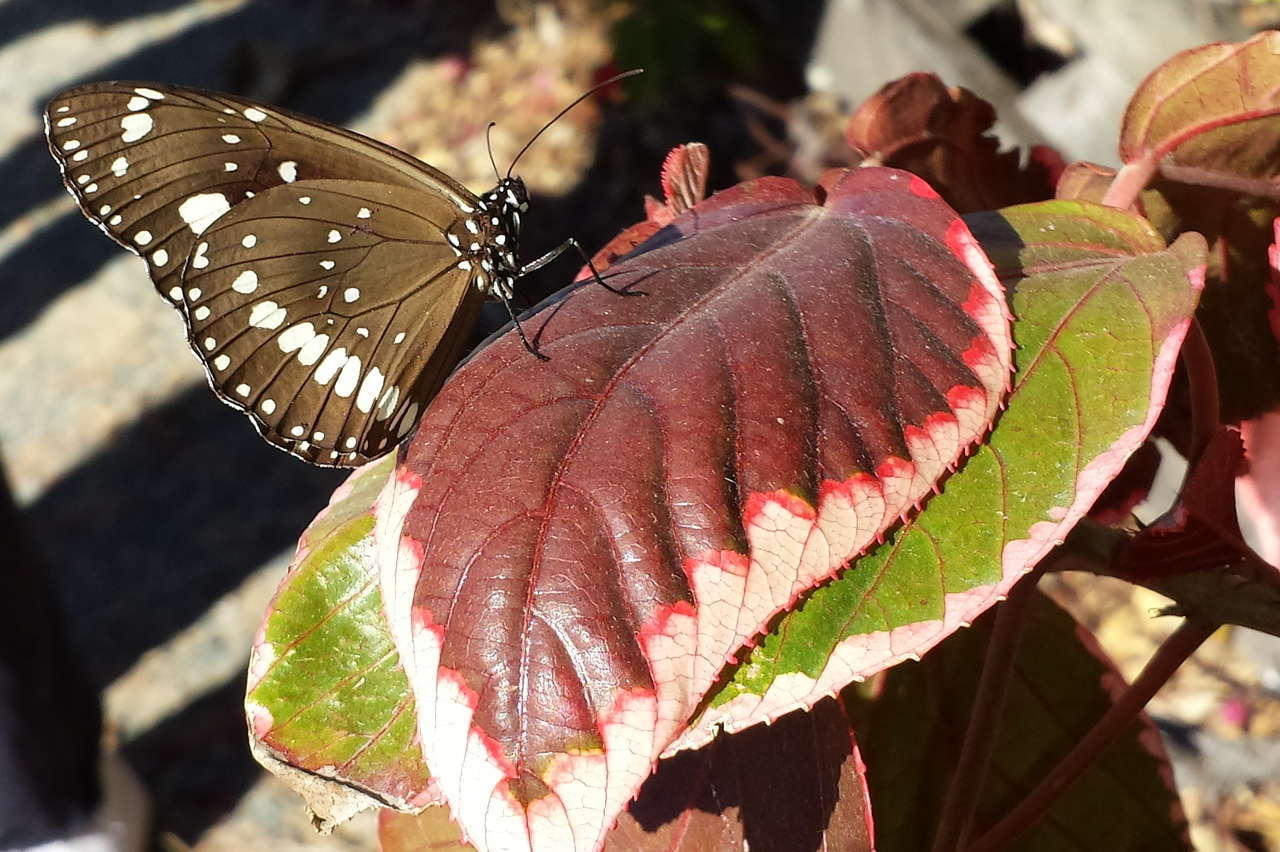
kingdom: Animalia
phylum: Arthropoda
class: Insecta
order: Lepidoptera
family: Nymphalidae
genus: Euploea
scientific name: Euploea core
